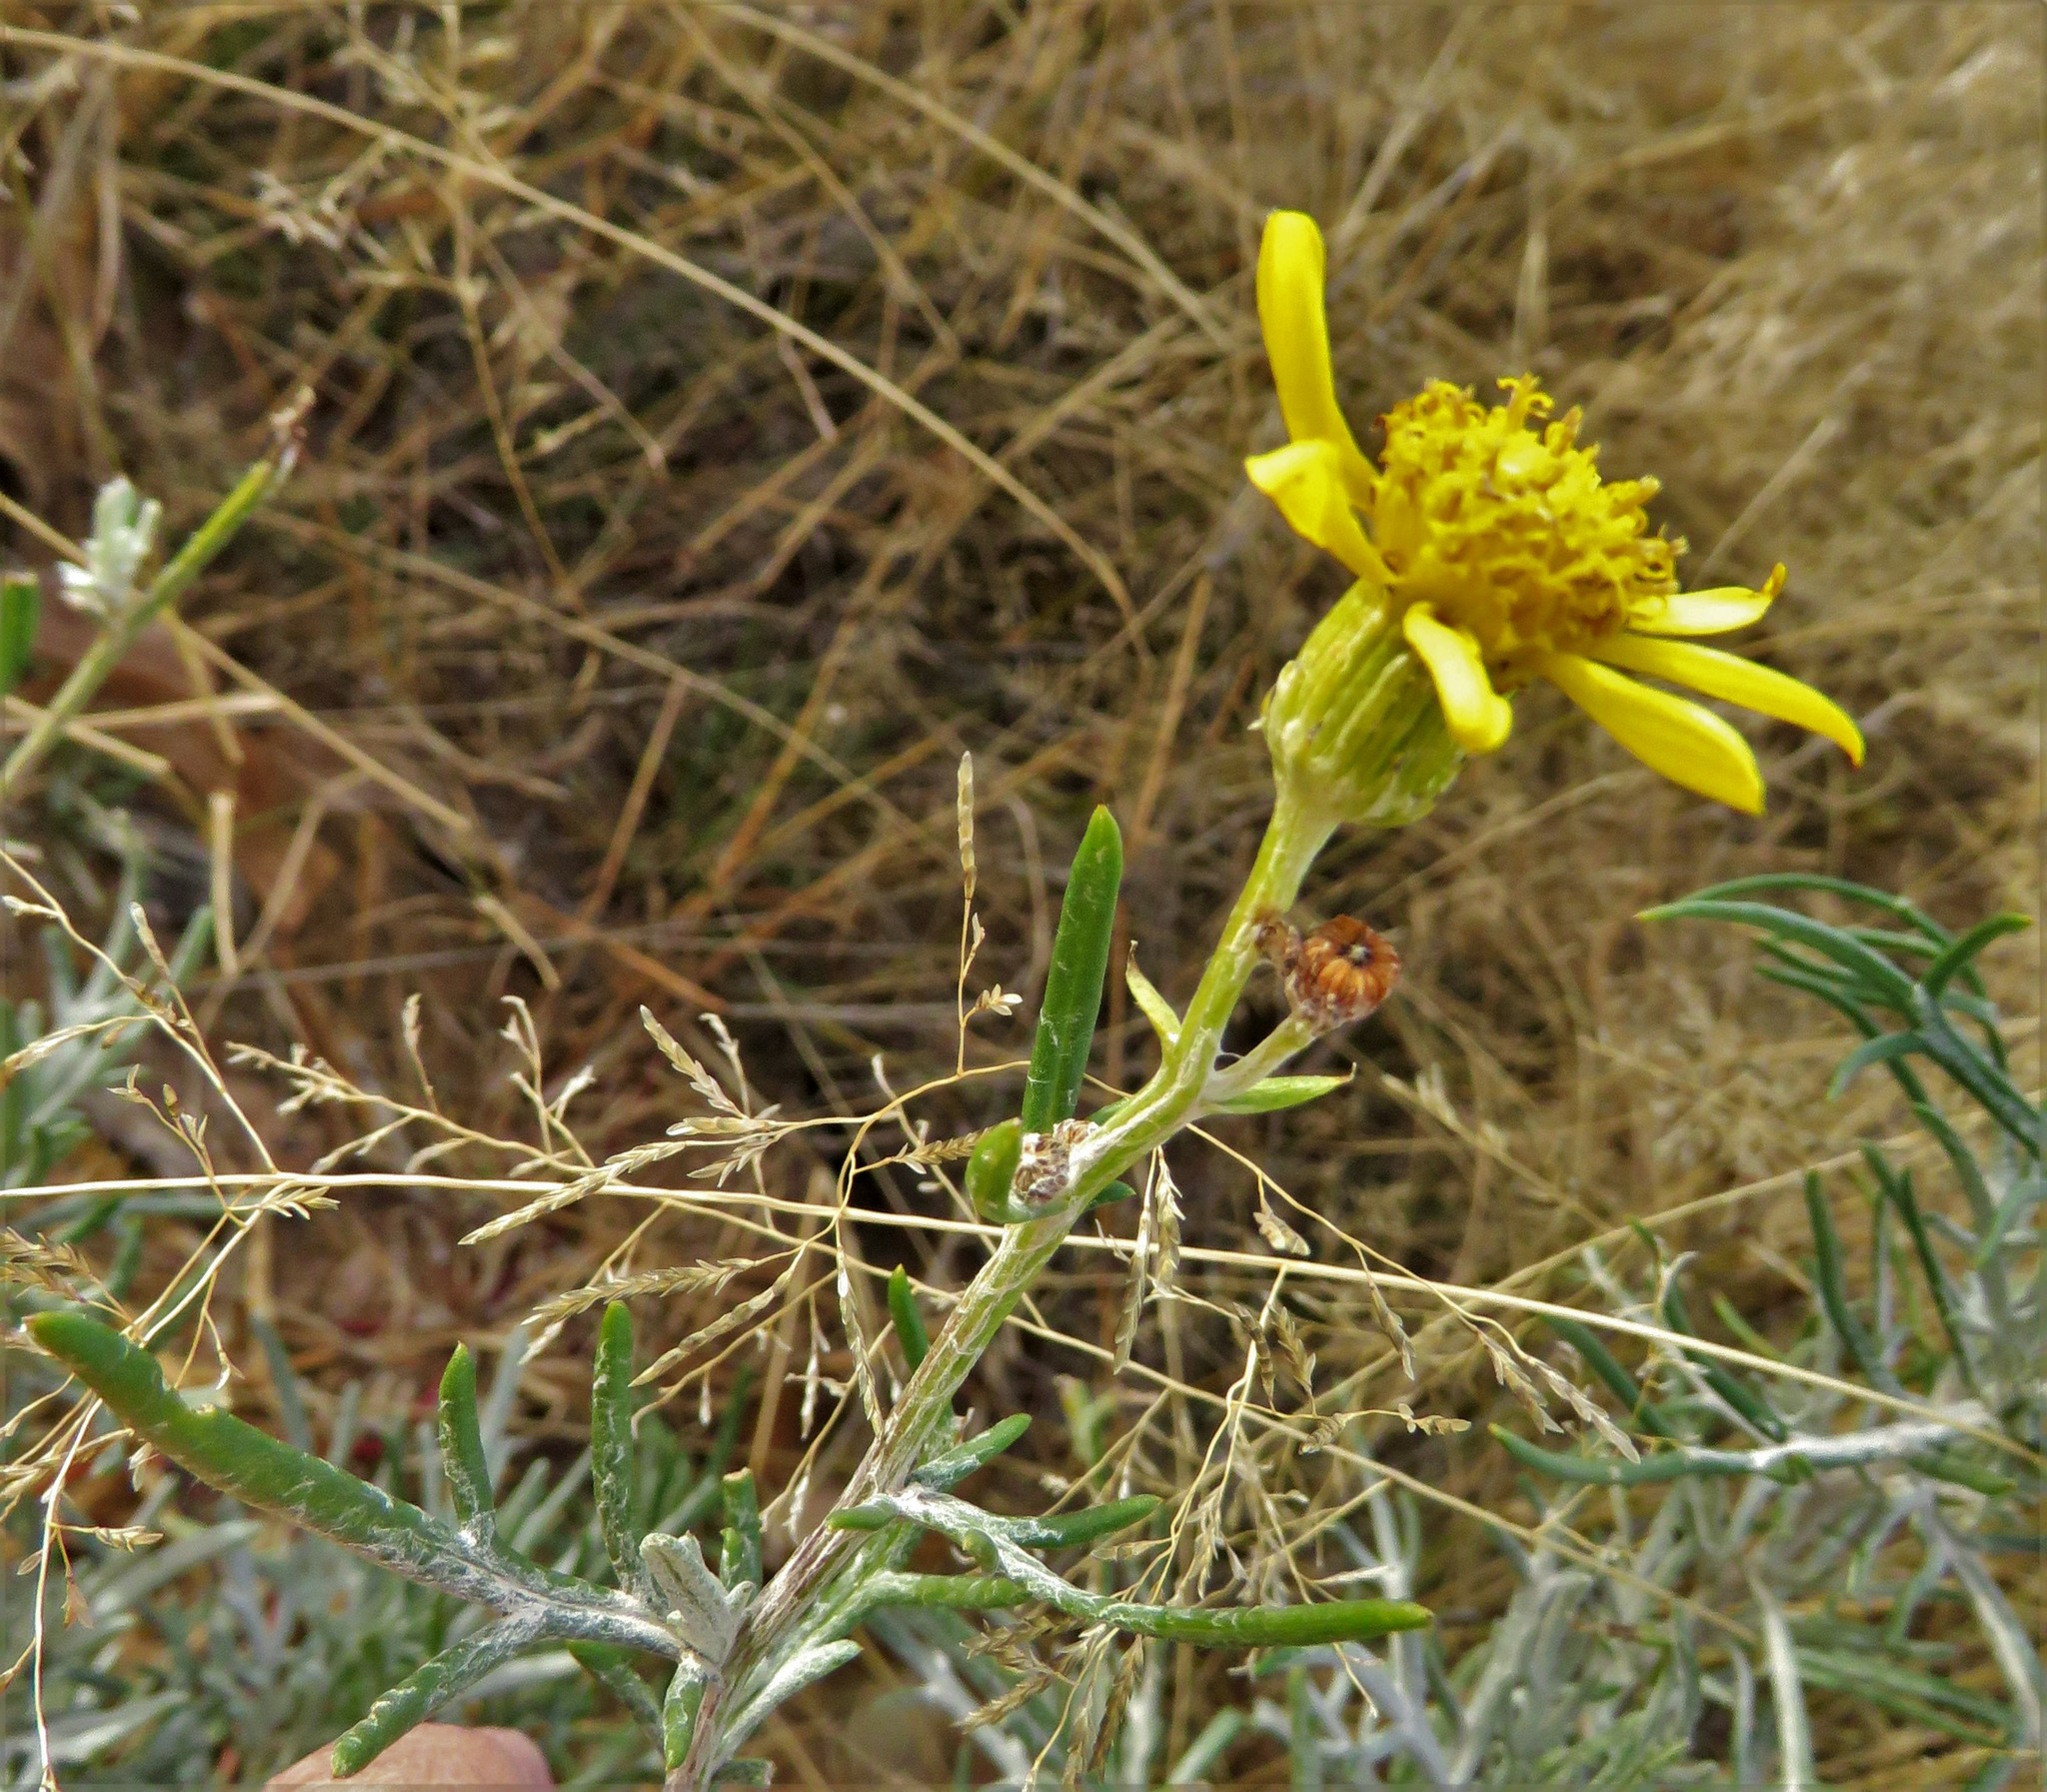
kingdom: Plantae
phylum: Tracheophyta
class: Magnoliopsida
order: Asterales
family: Asteraceae
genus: Senecio
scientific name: Senecio flaccidus
